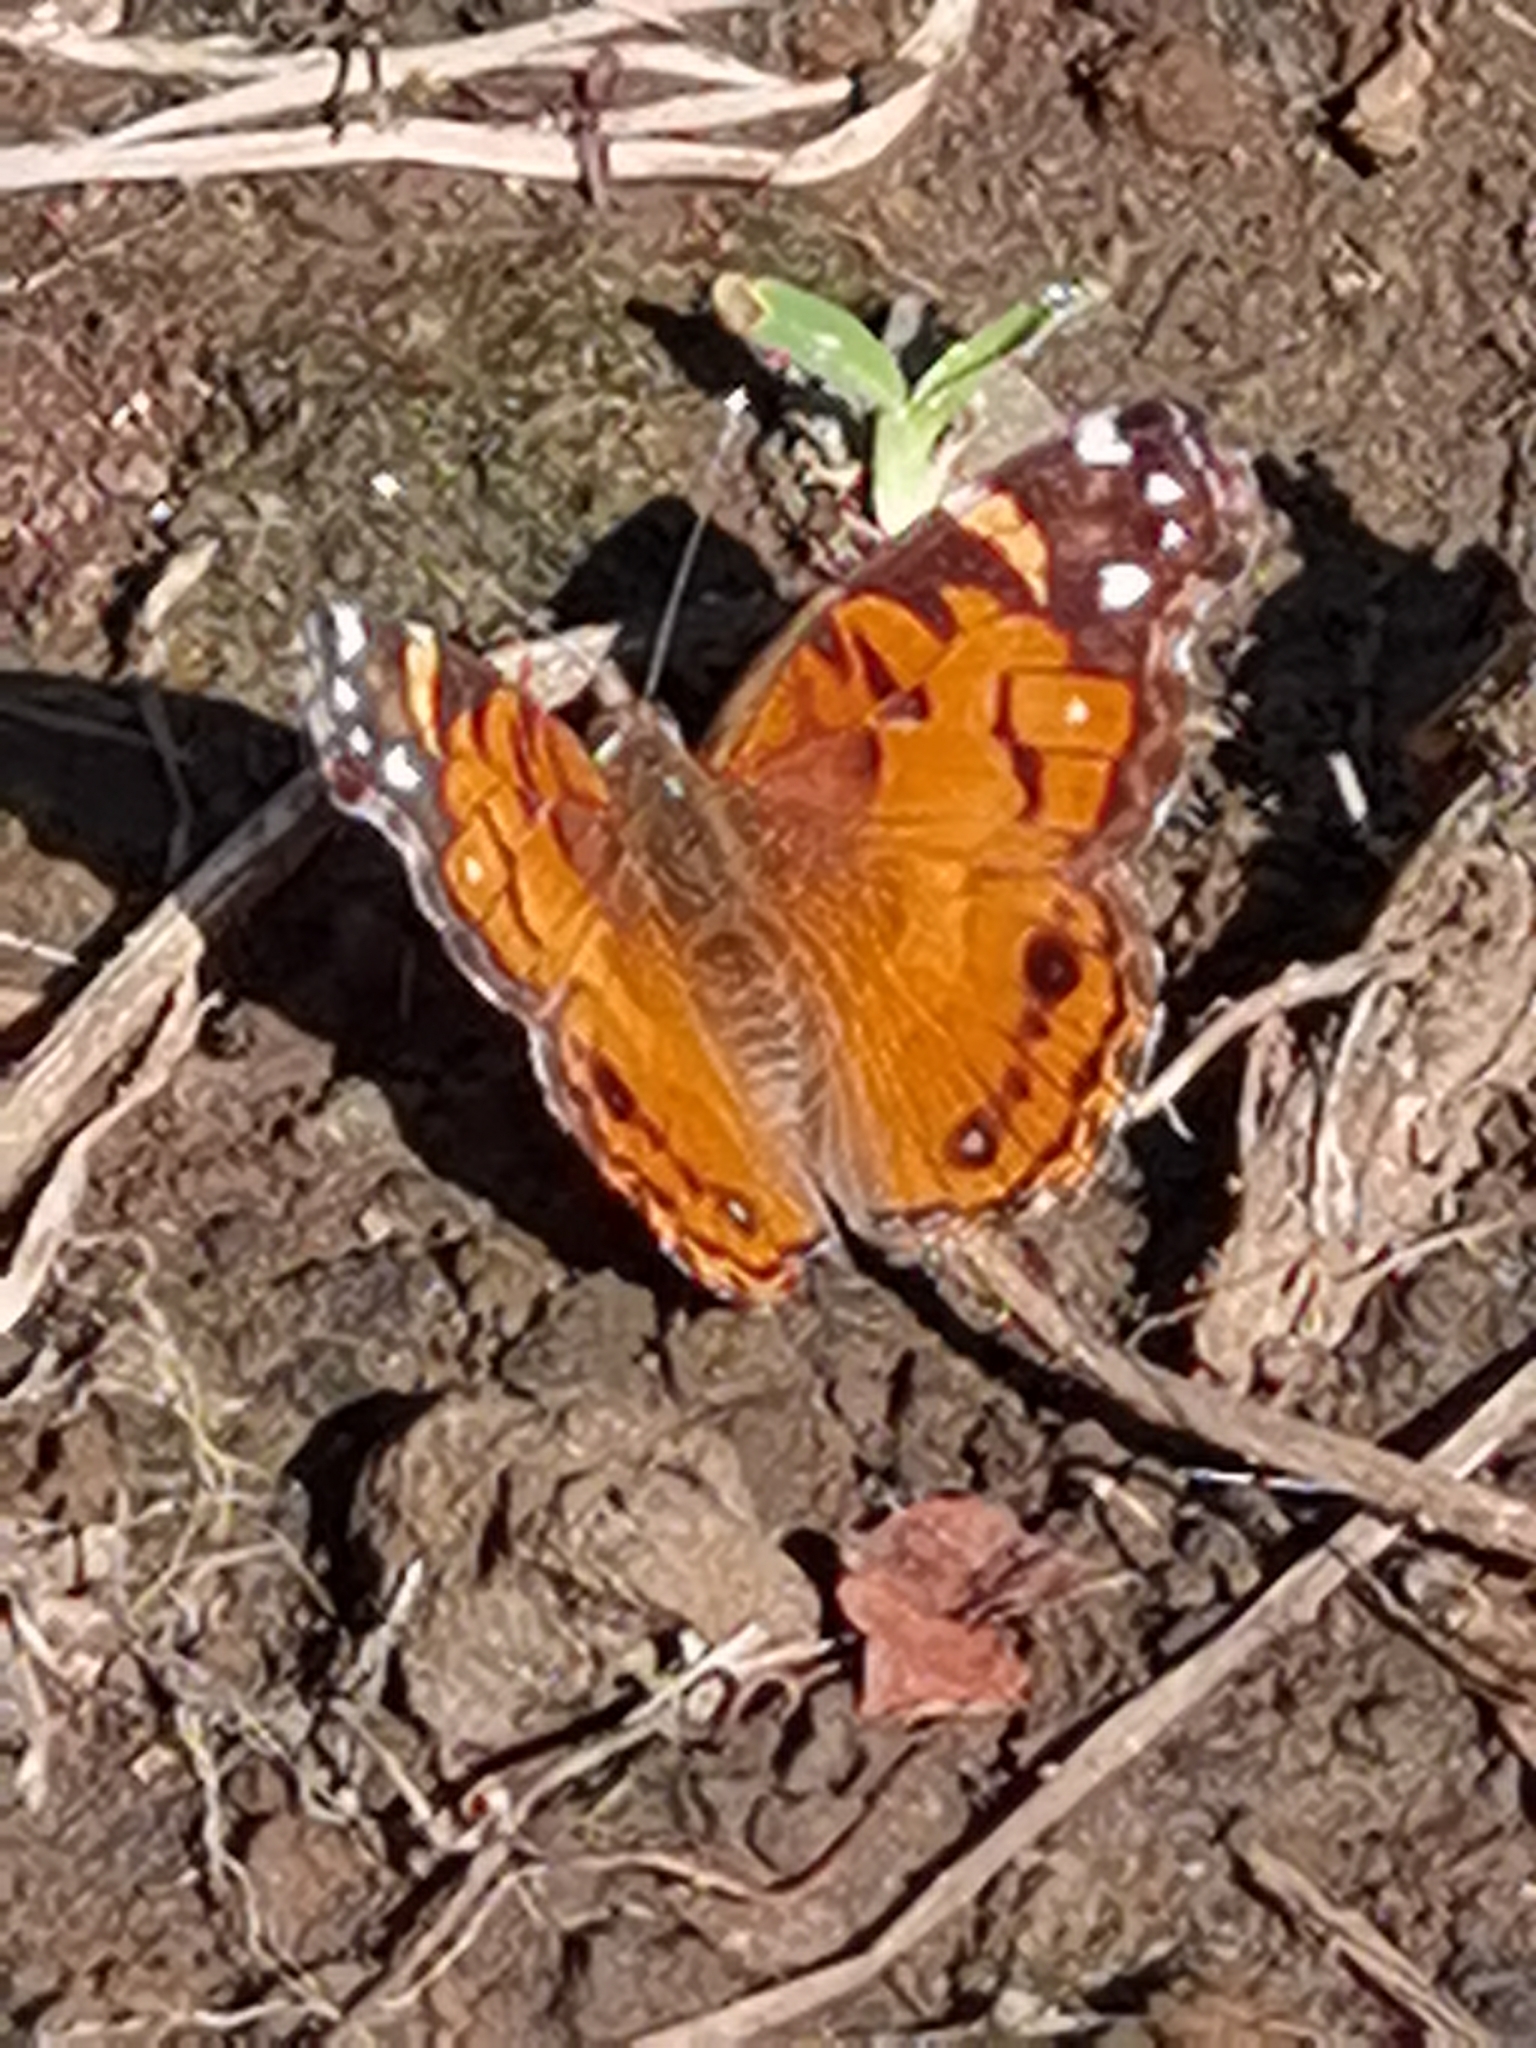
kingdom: Animalia
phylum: Arthropoda
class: Insecta
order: Lepidoptera
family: Nymphalidae
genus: Vanessa
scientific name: Vanessa virginiensis
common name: American lady
